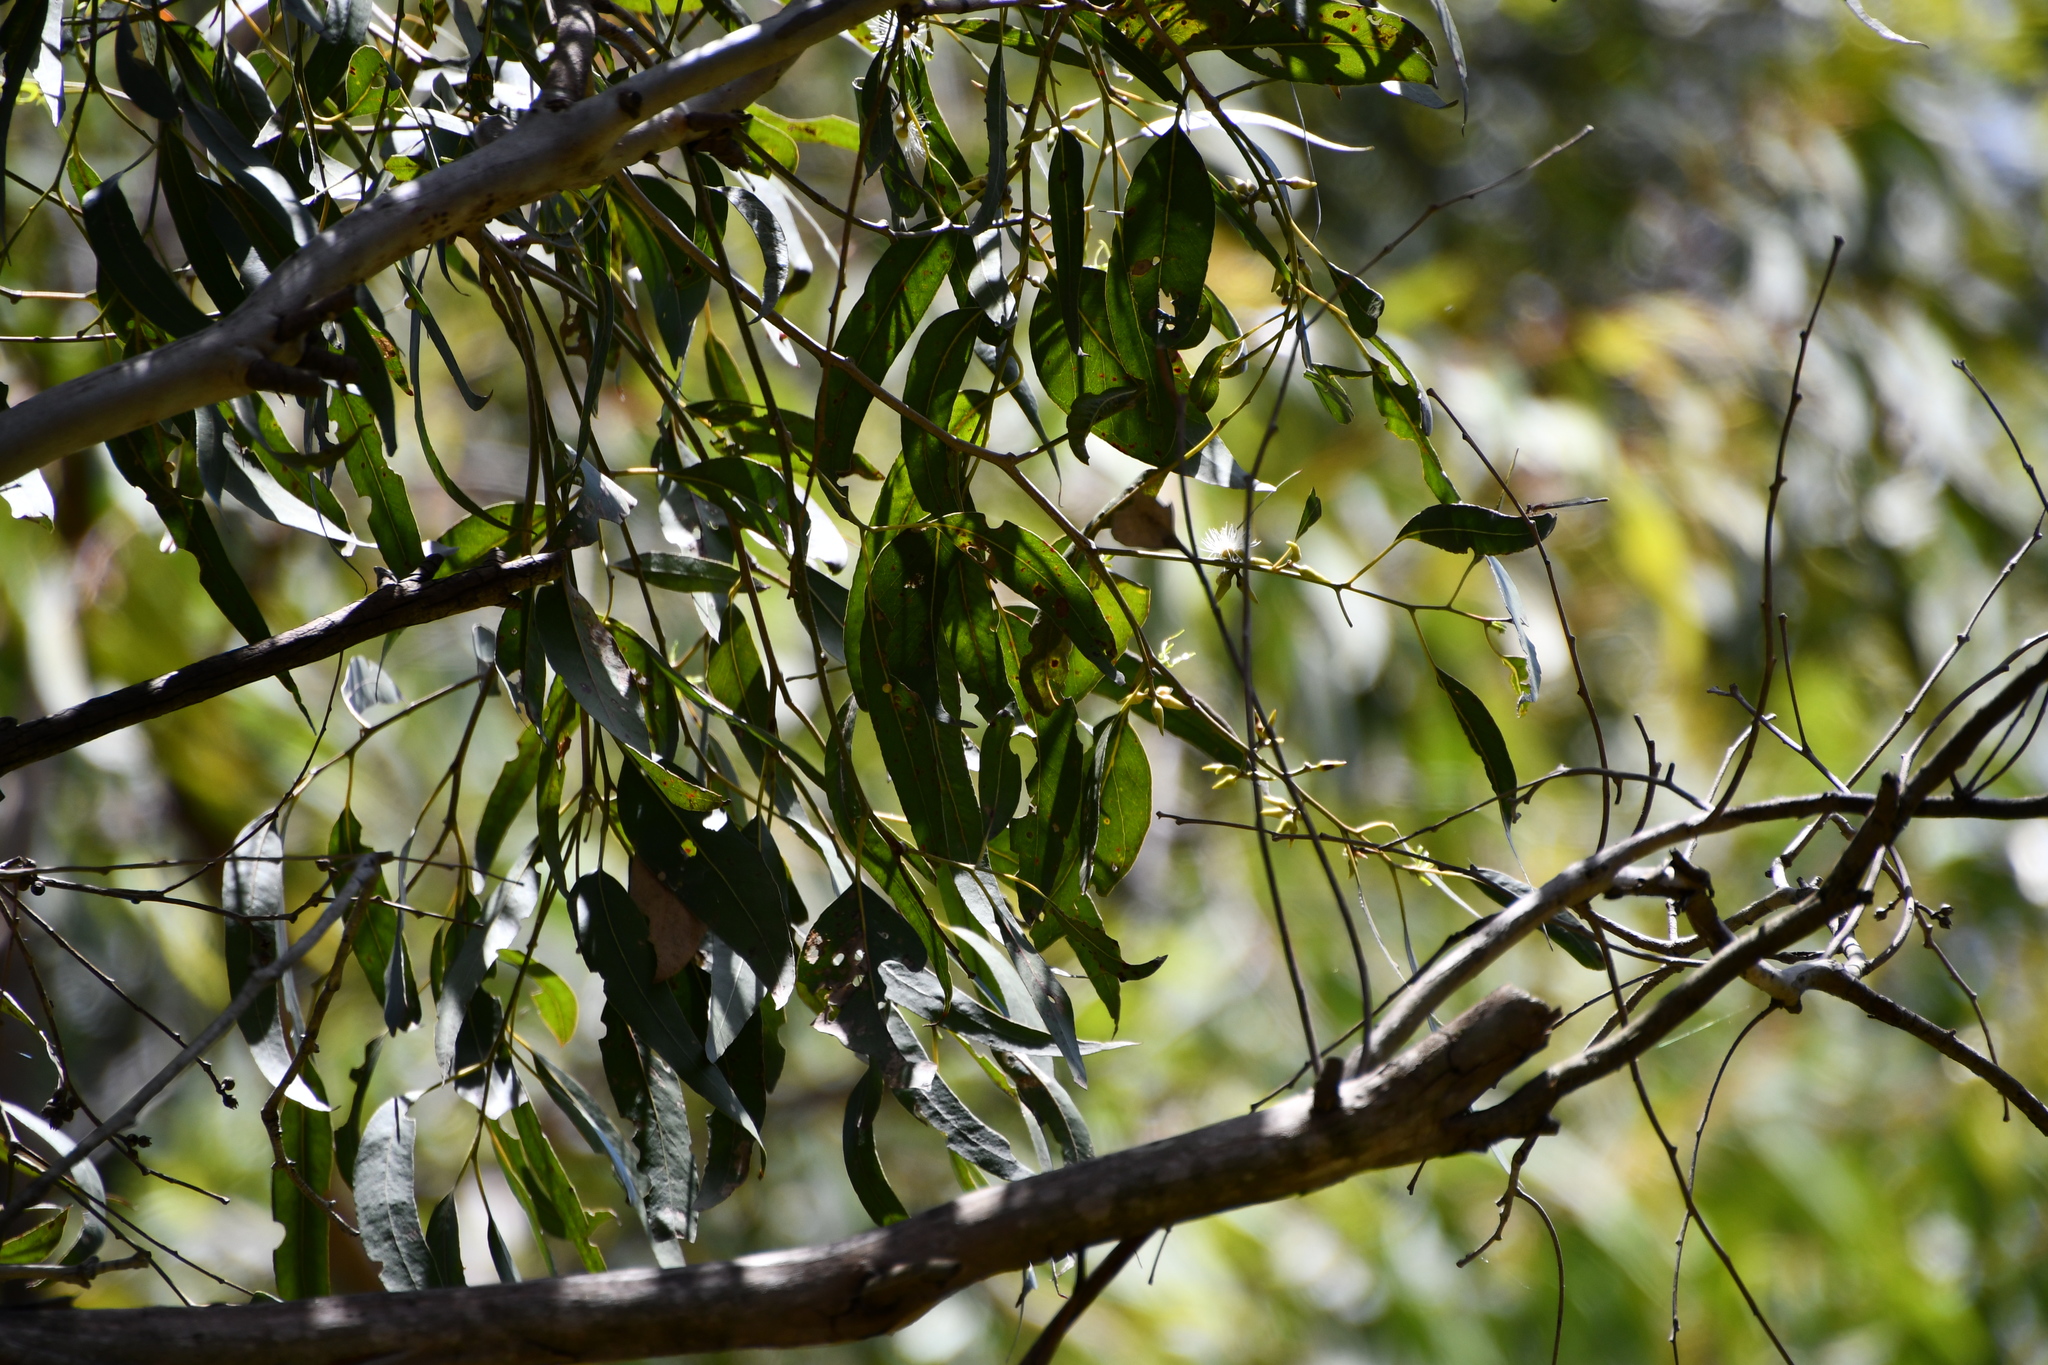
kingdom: Plantae
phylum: Tracheophyta
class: Magnoliopsida
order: Myrtales
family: Myrtaceae
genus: Eucalyptus
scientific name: Eucalyptus amplifolia
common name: Cabbage gum
